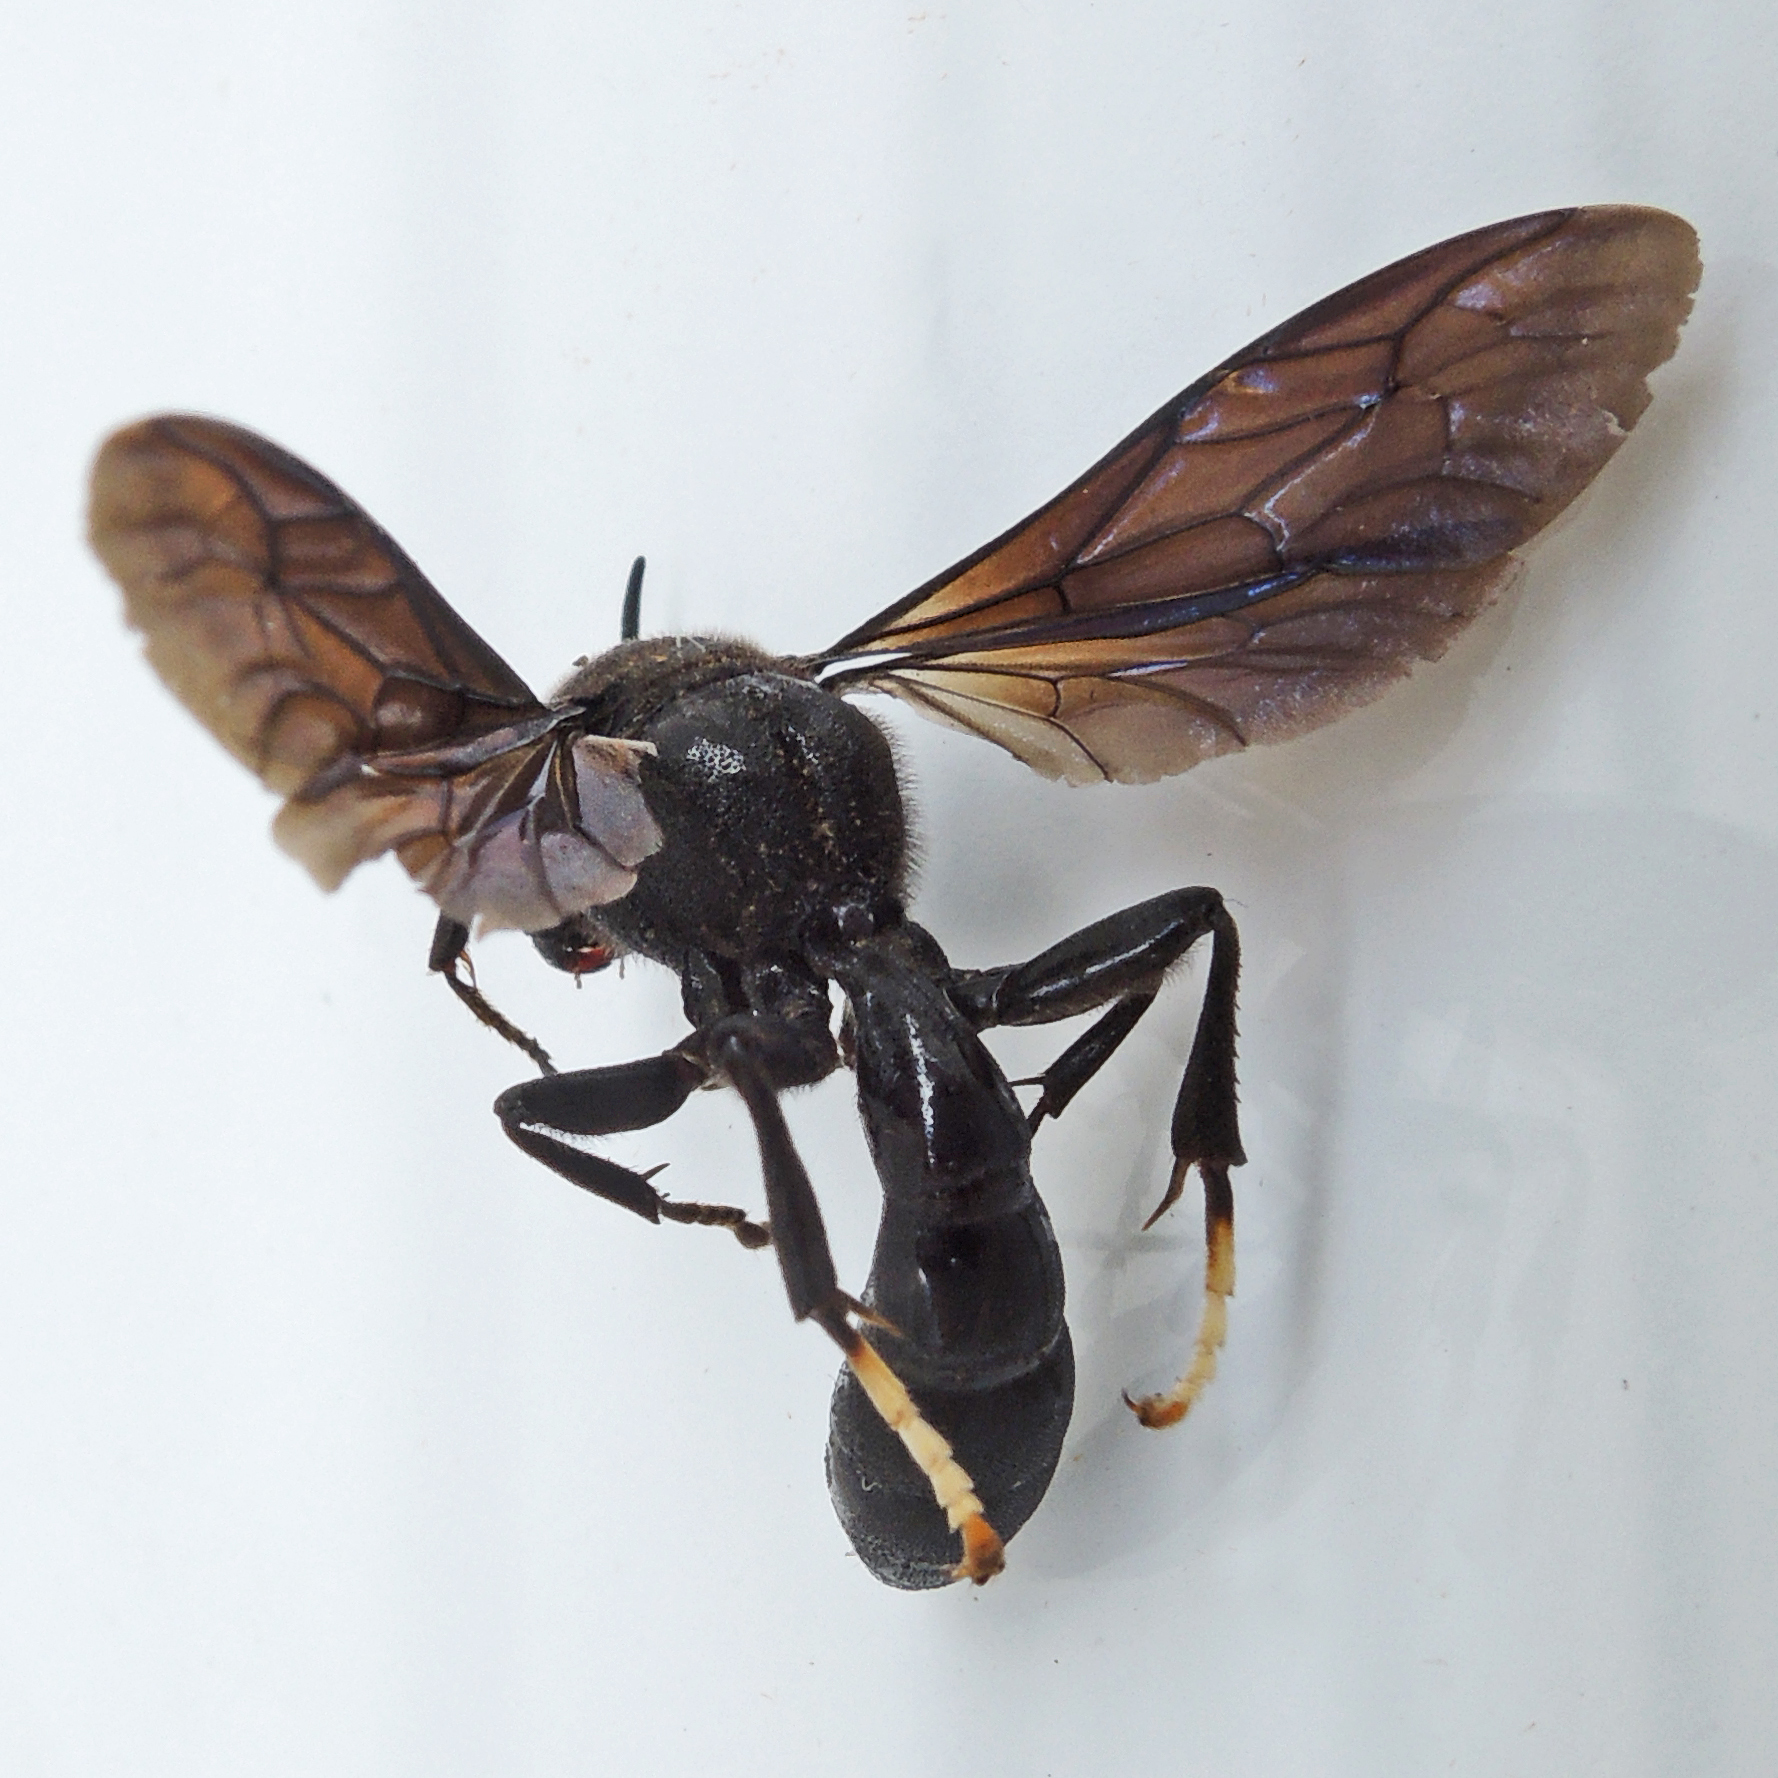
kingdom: Animalia
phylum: Arthropoda
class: Insecta
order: Hymenoptera
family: Crabronidae
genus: Trypoxylon
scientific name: Trypoxylon politum
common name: Organ-pipe mud-dauber wasp
